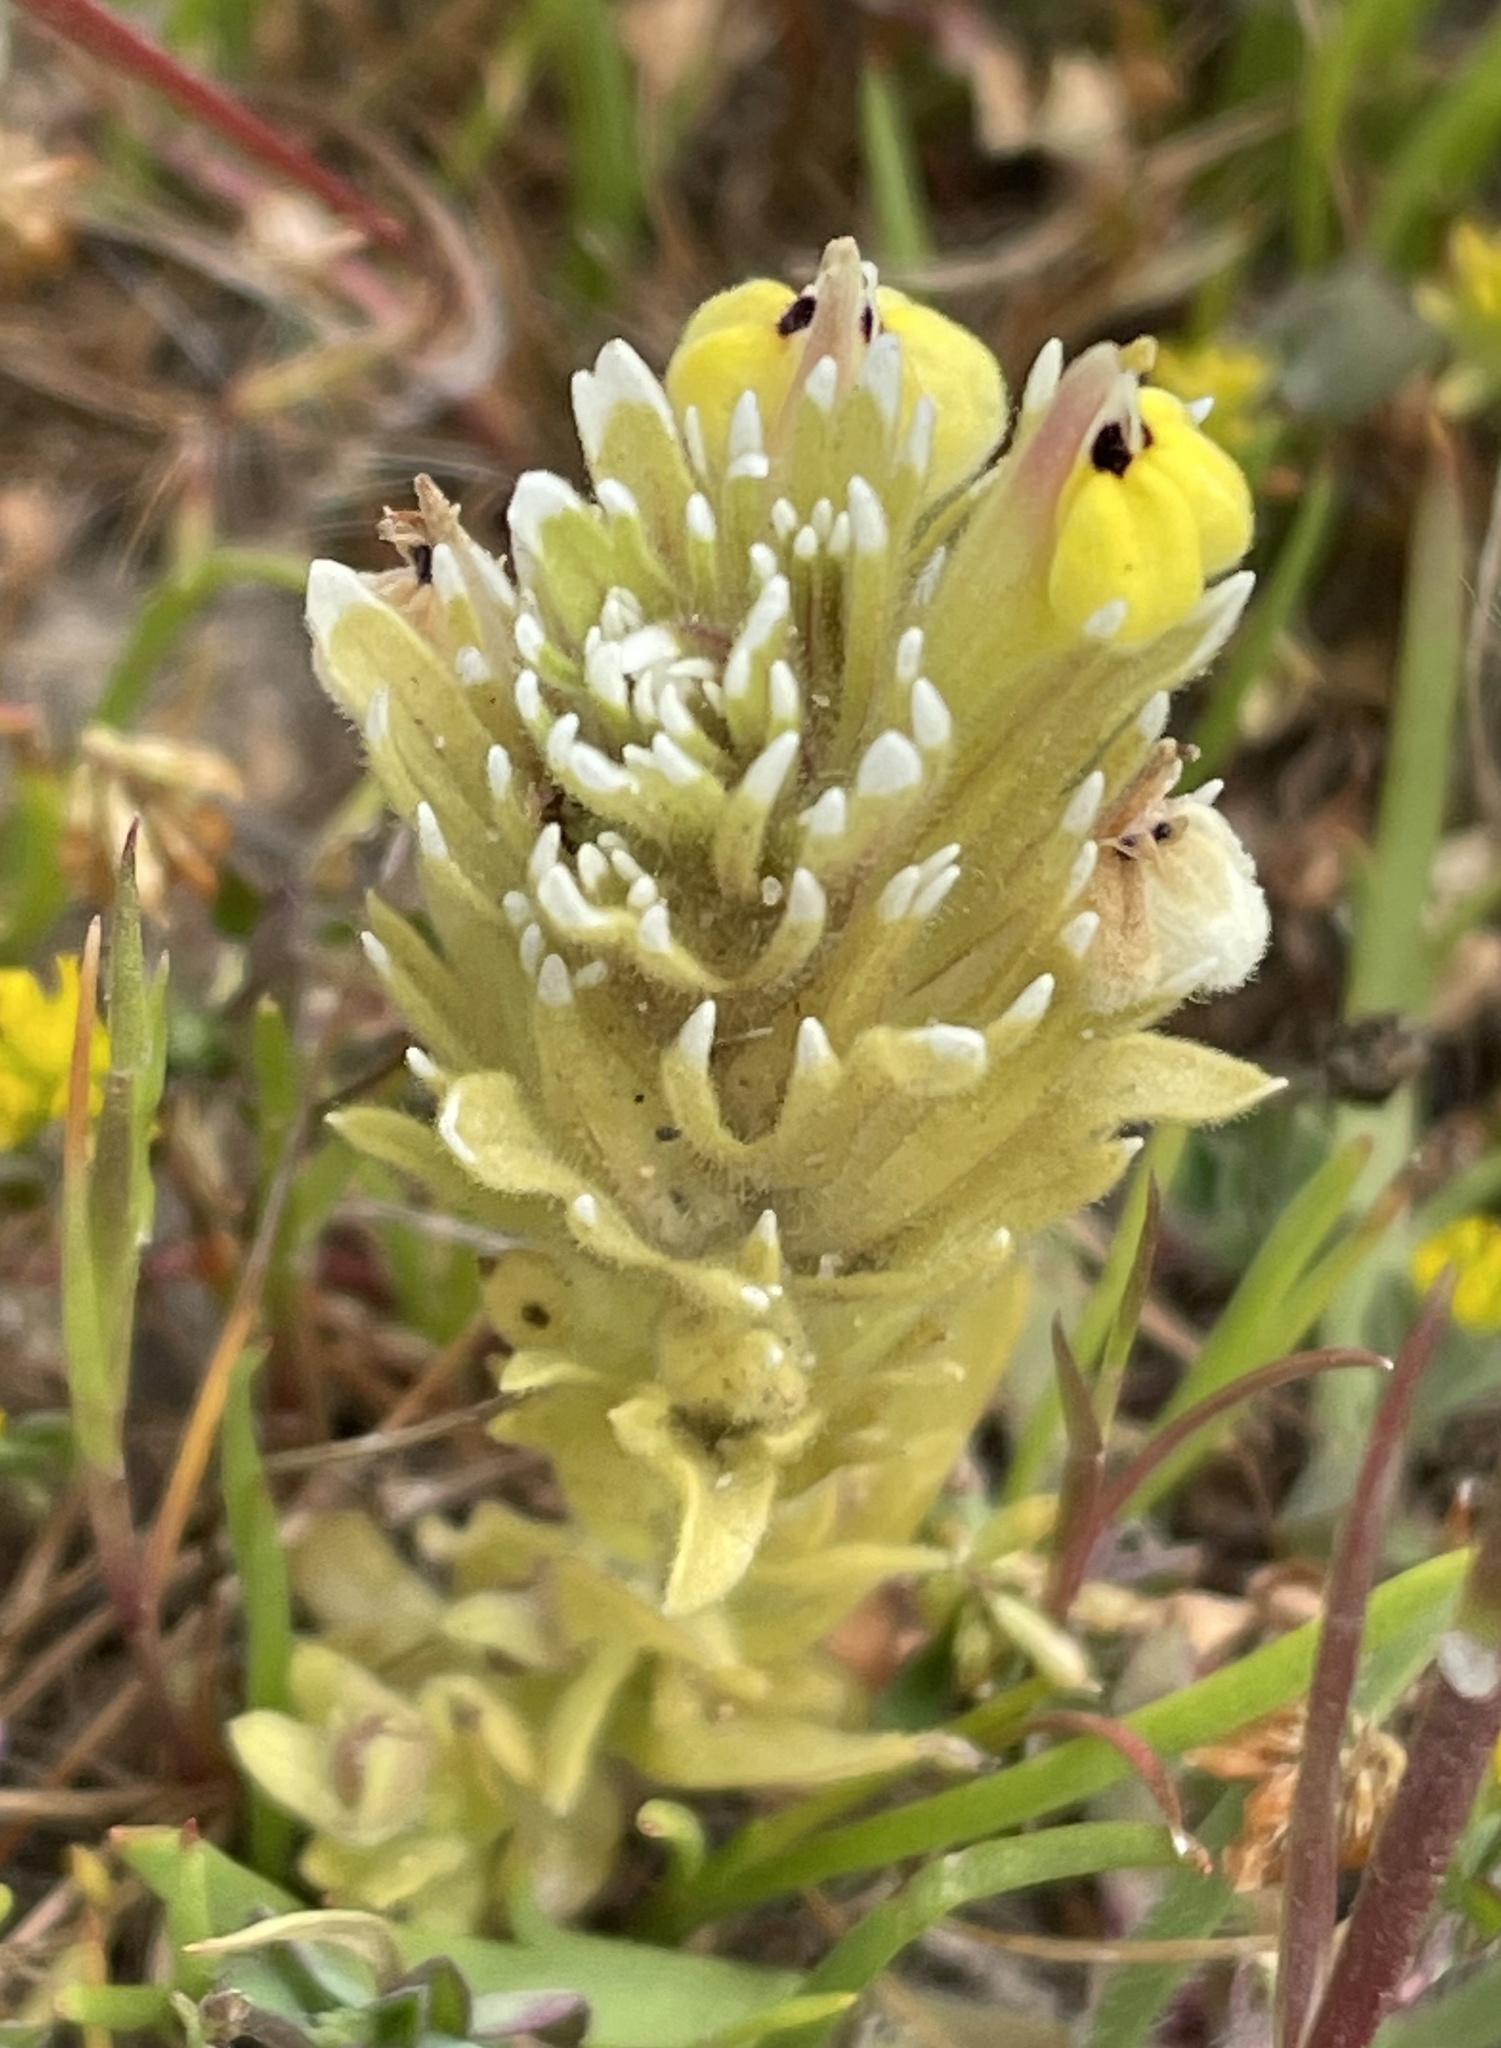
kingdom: Plantae
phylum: Tracheophyta
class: Magnoliopsida
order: Lamiales
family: Orobanchaceae
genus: Castilleja
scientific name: Castilleja ambigua
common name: Johnny-nip
